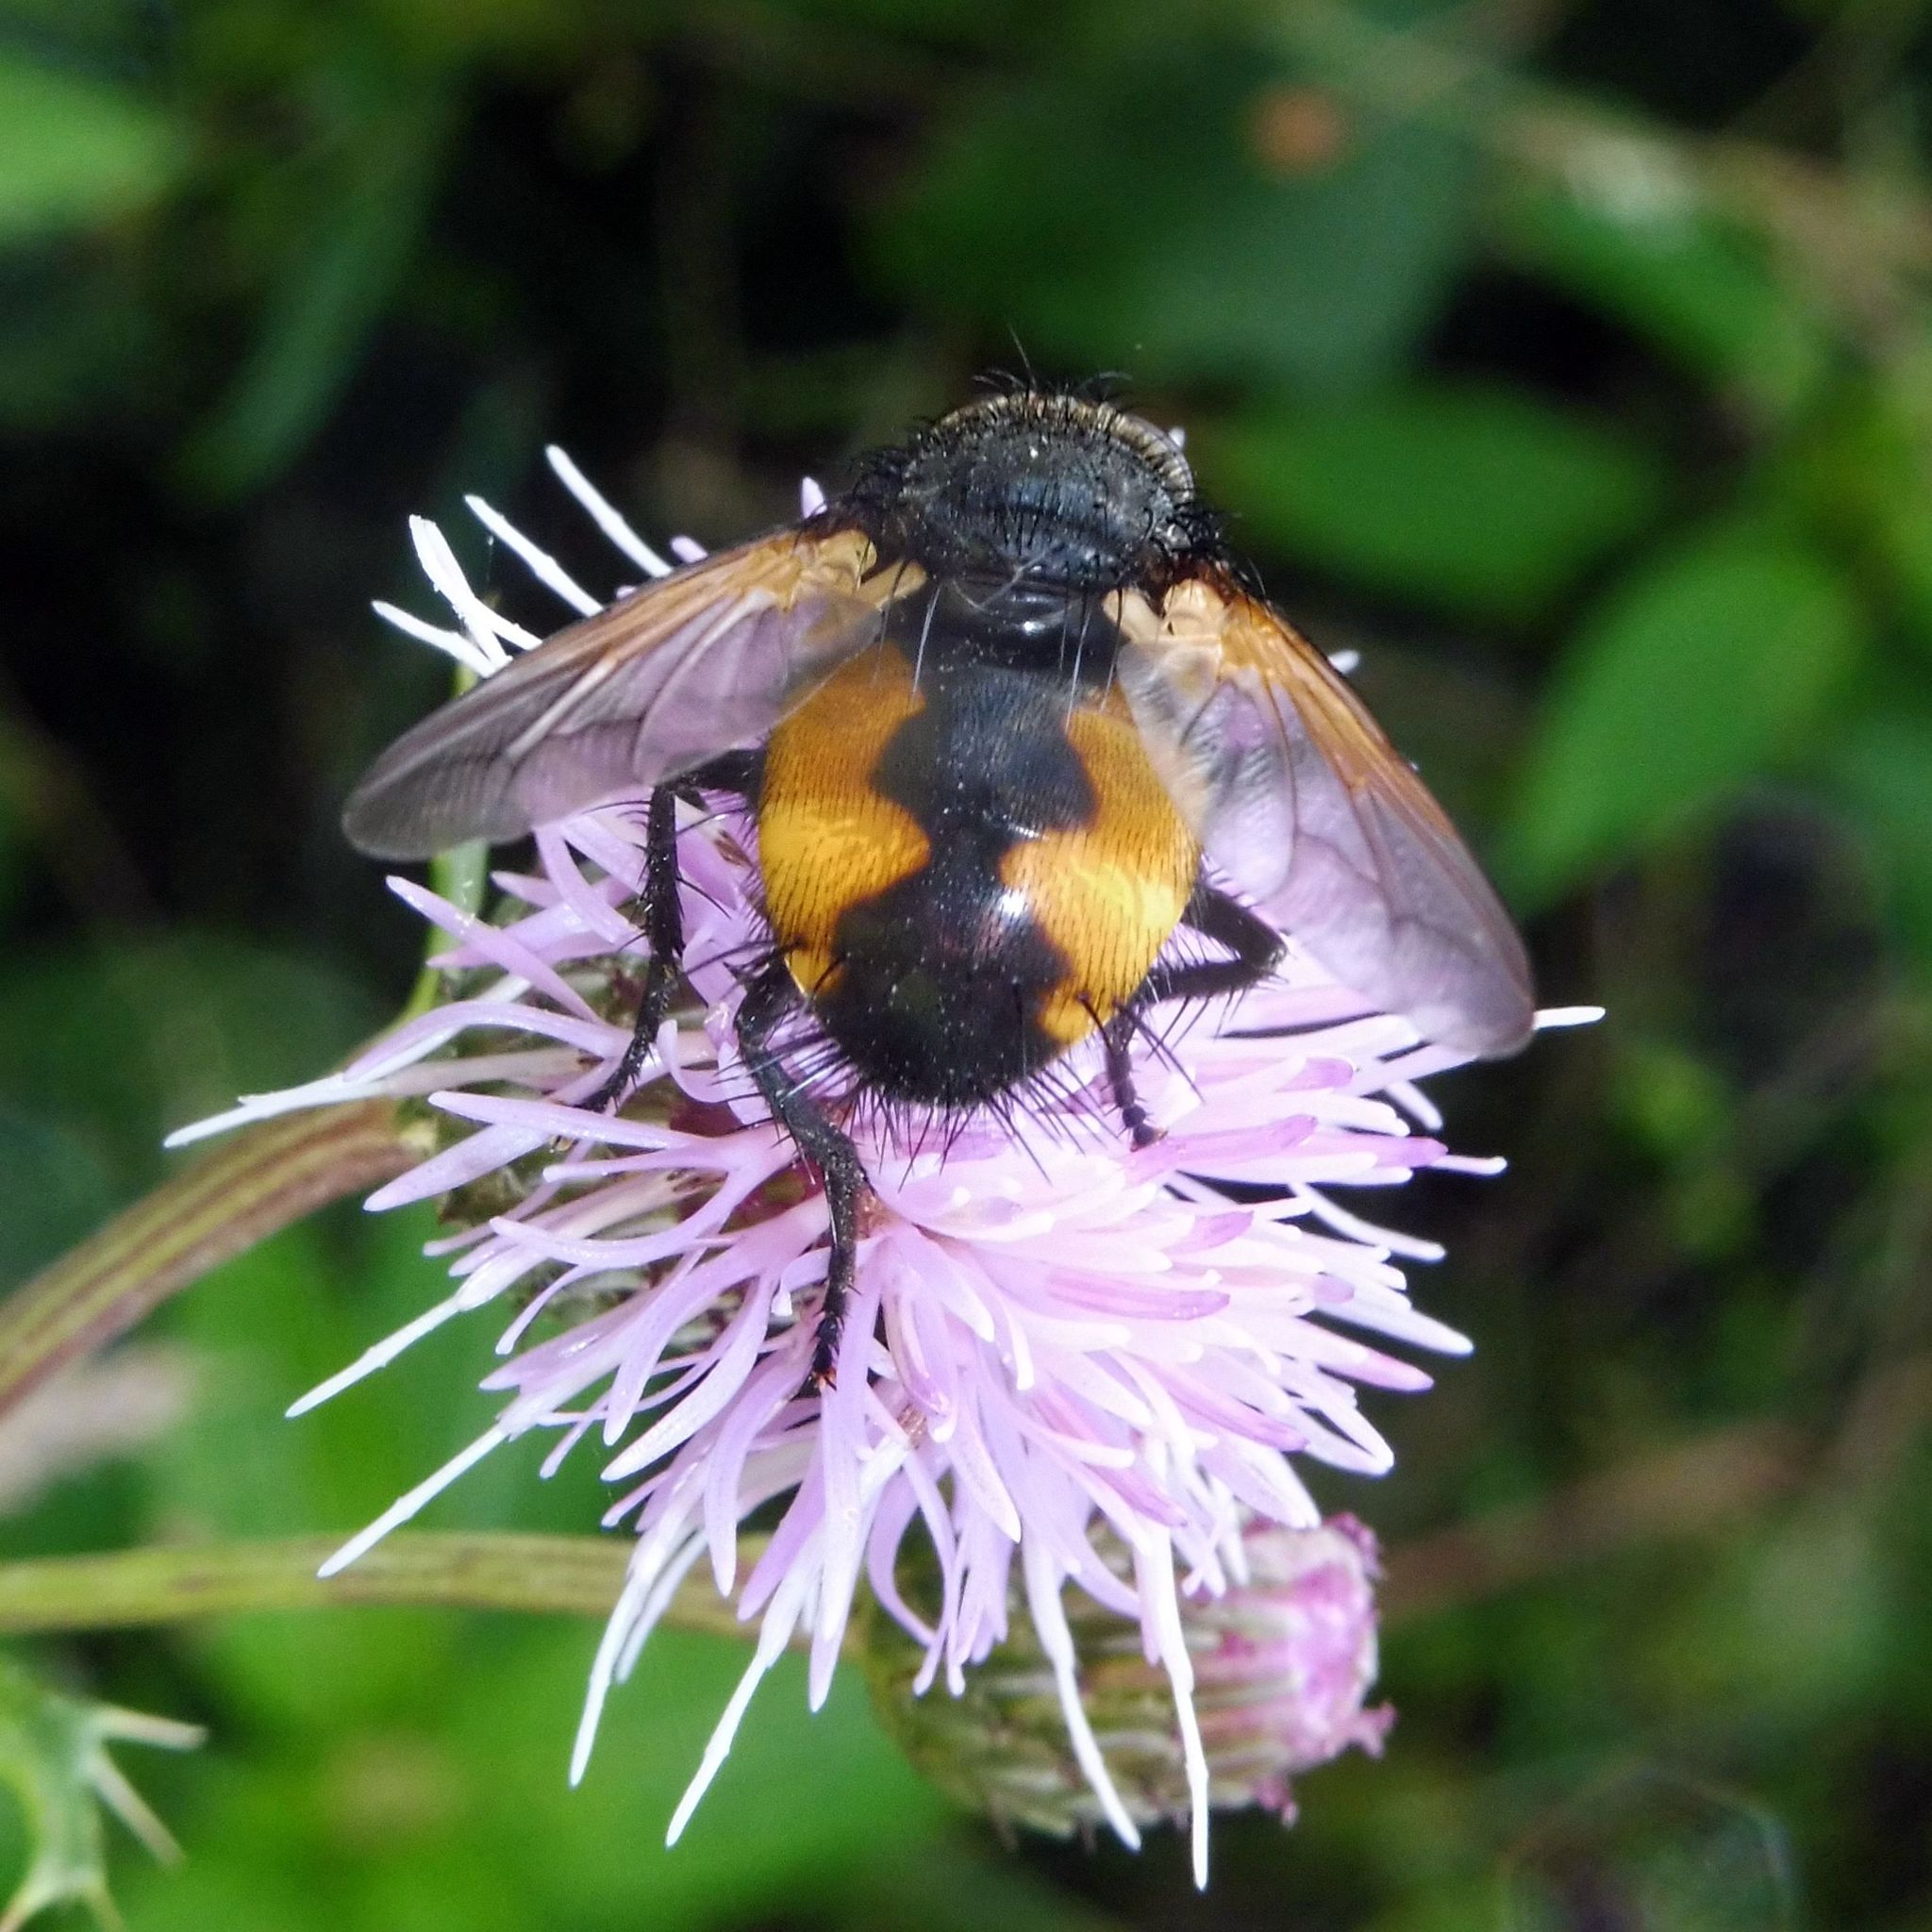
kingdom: Animalia
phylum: Arthropoda
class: Insecta
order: Diptera
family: Tachinidae
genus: Nowickia
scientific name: Nowickia ferox
